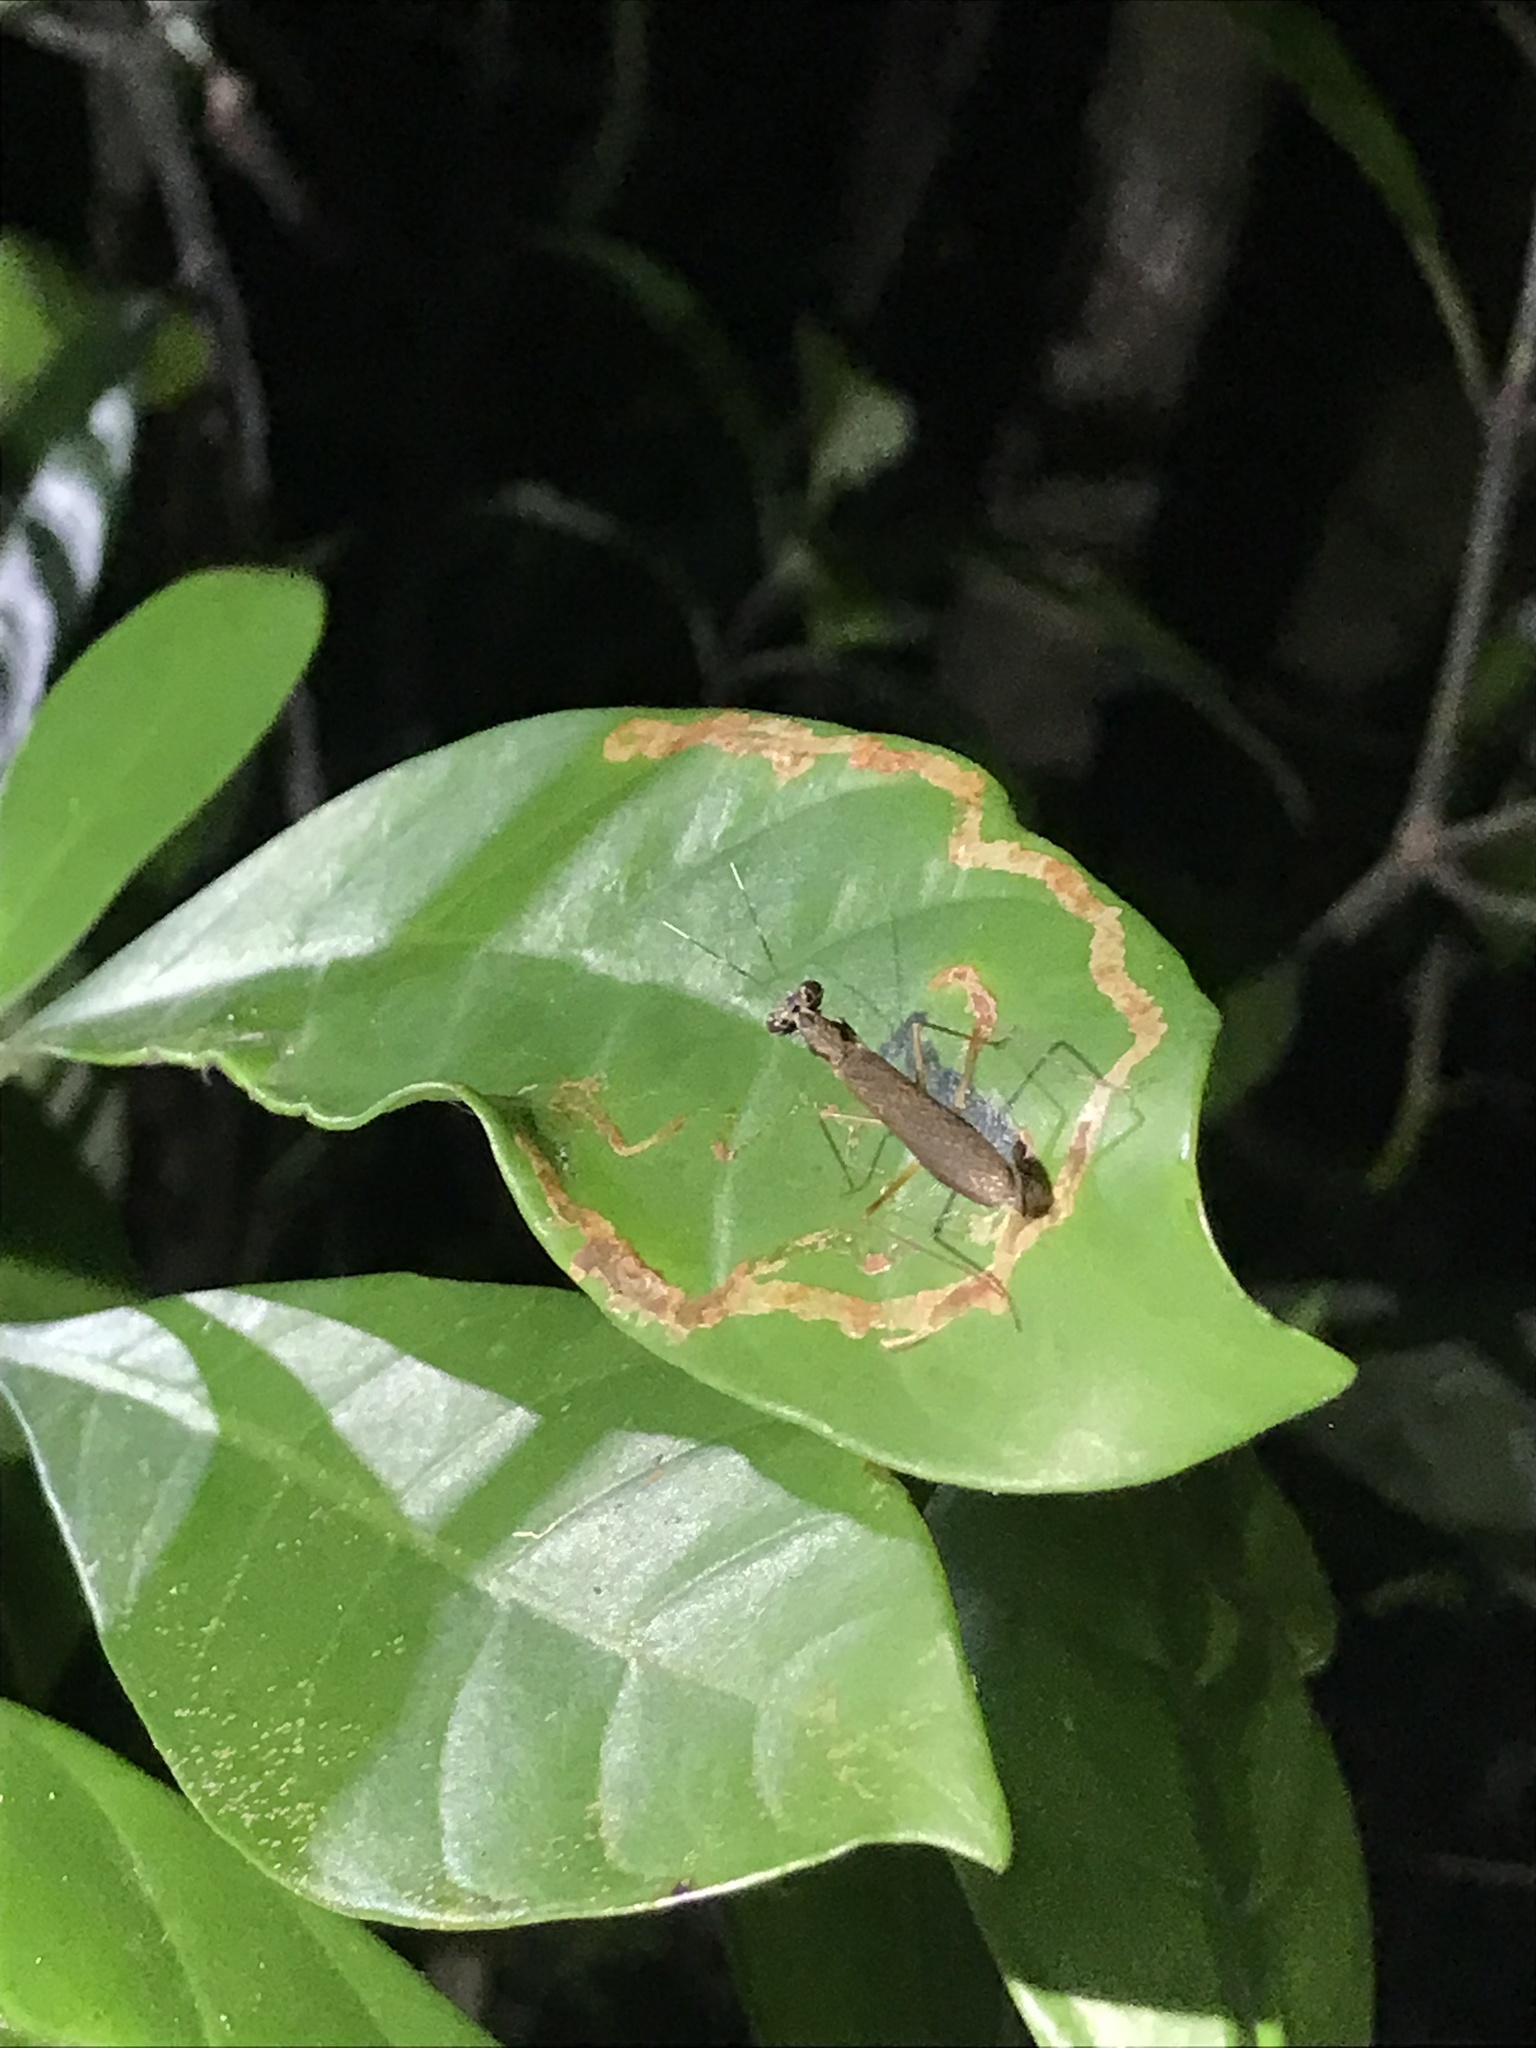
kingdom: Animalia
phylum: Arthropoda
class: Insecta
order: Mantodea
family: Gonypetidae
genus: Spilomantis
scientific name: Spilomantis occipitalis
